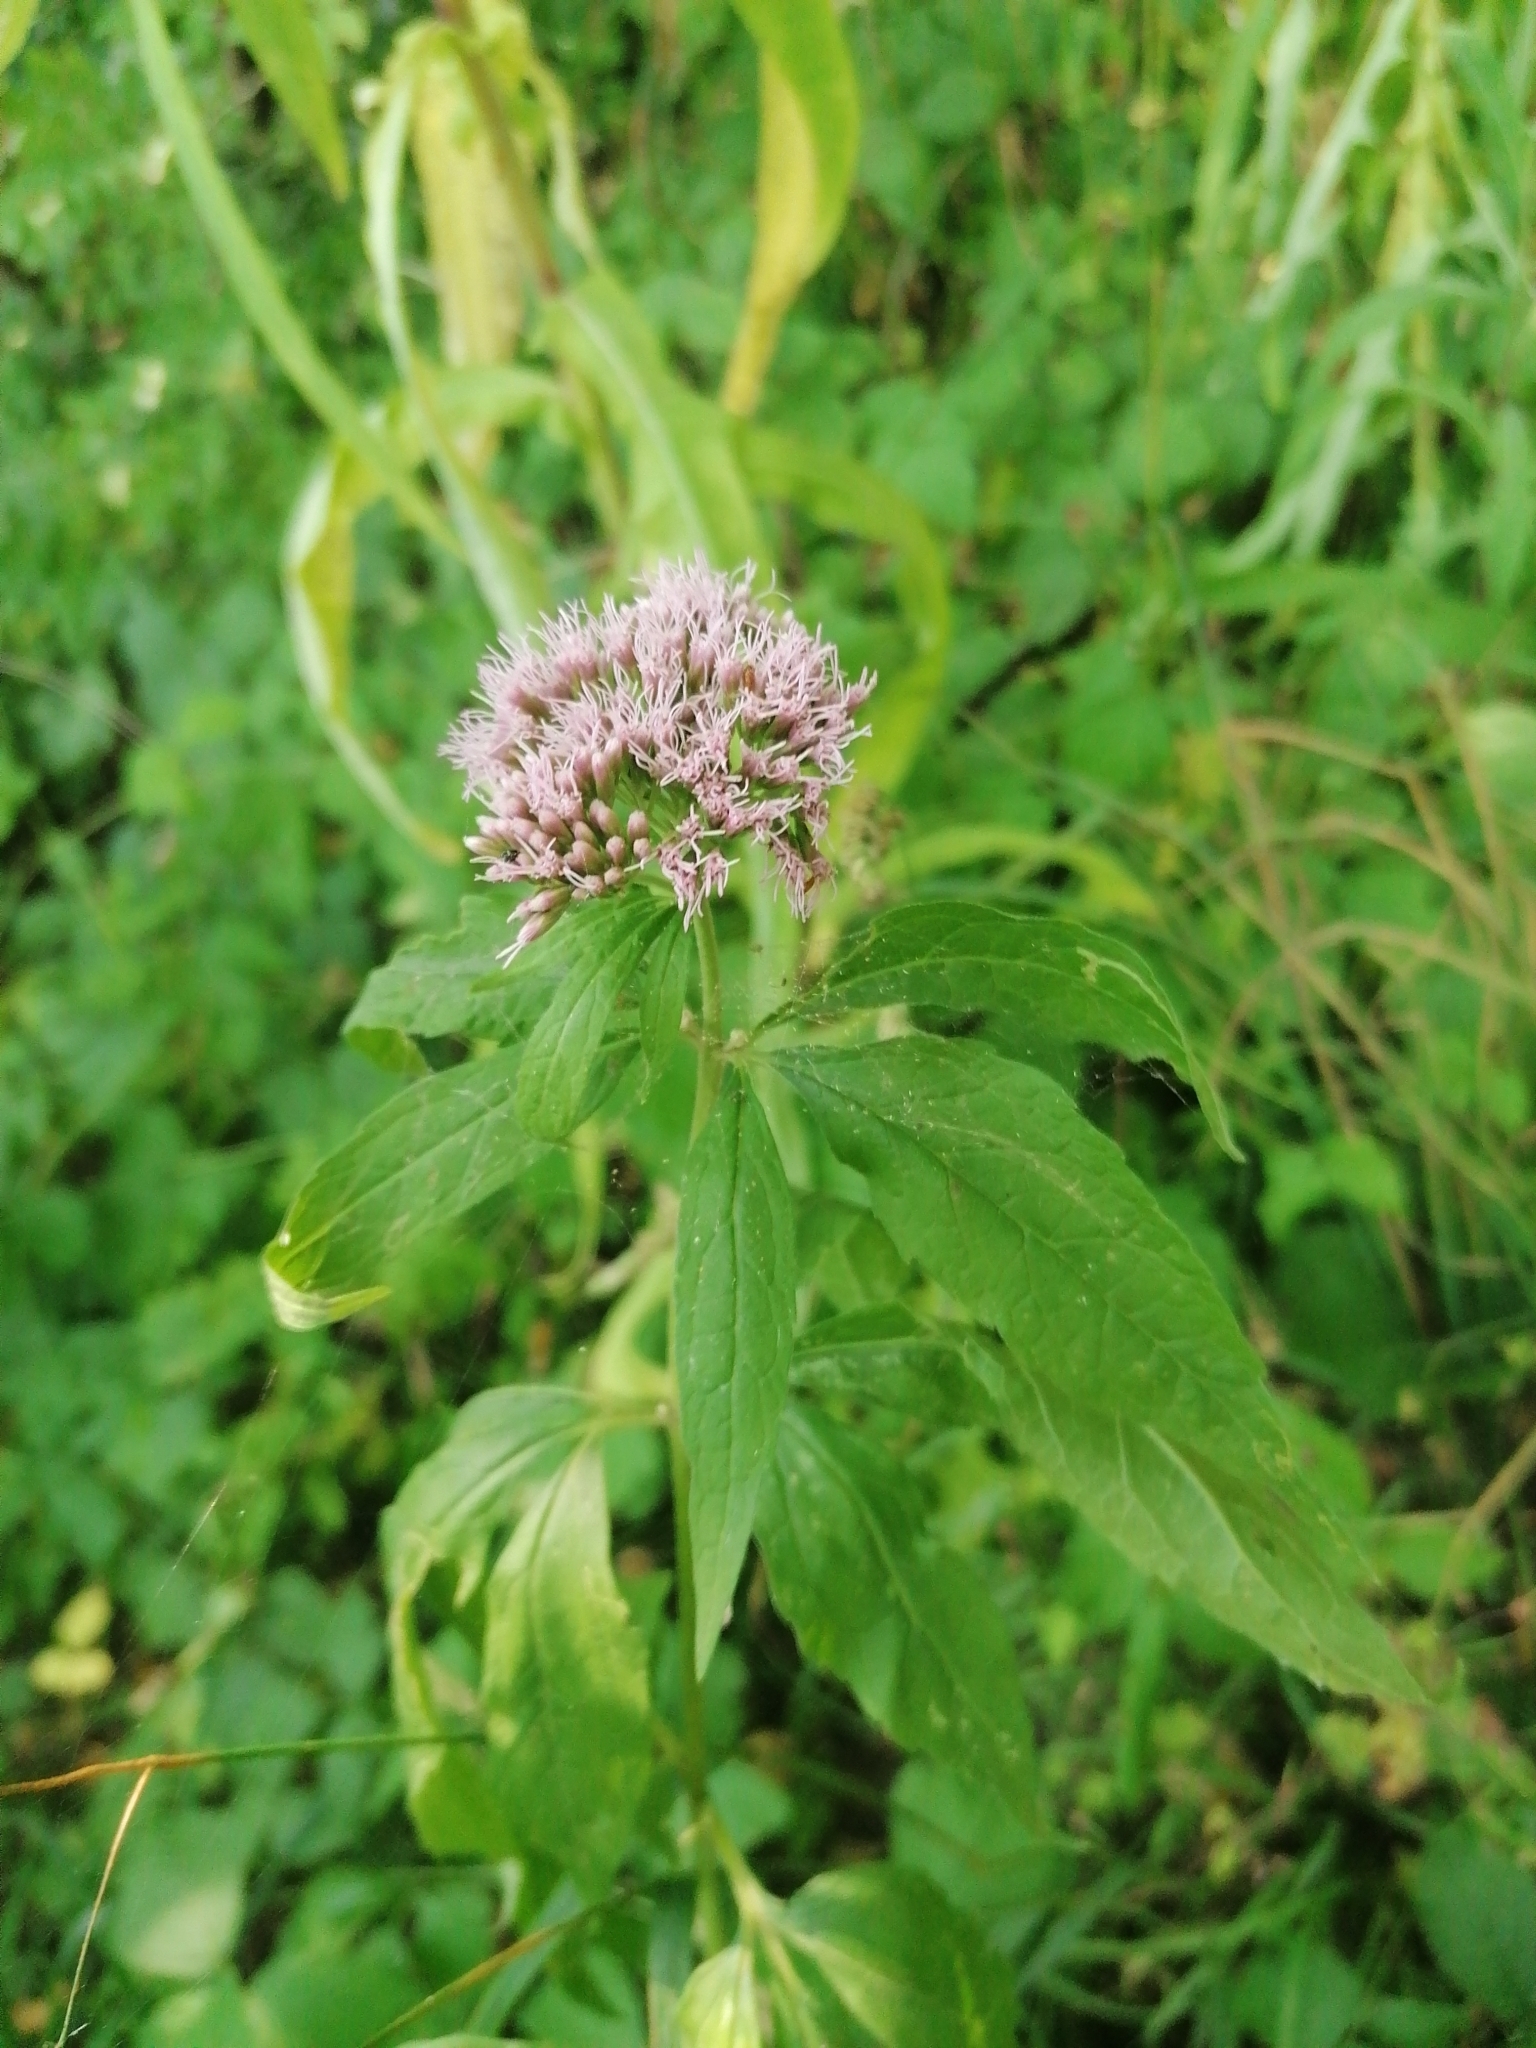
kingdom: Plantae
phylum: Tracheophyta
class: Magnoliopsida
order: Asterales
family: Asteraceae
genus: Eupatorium
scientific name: Eupatorium cannabinum
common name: Hemp-agrimony
